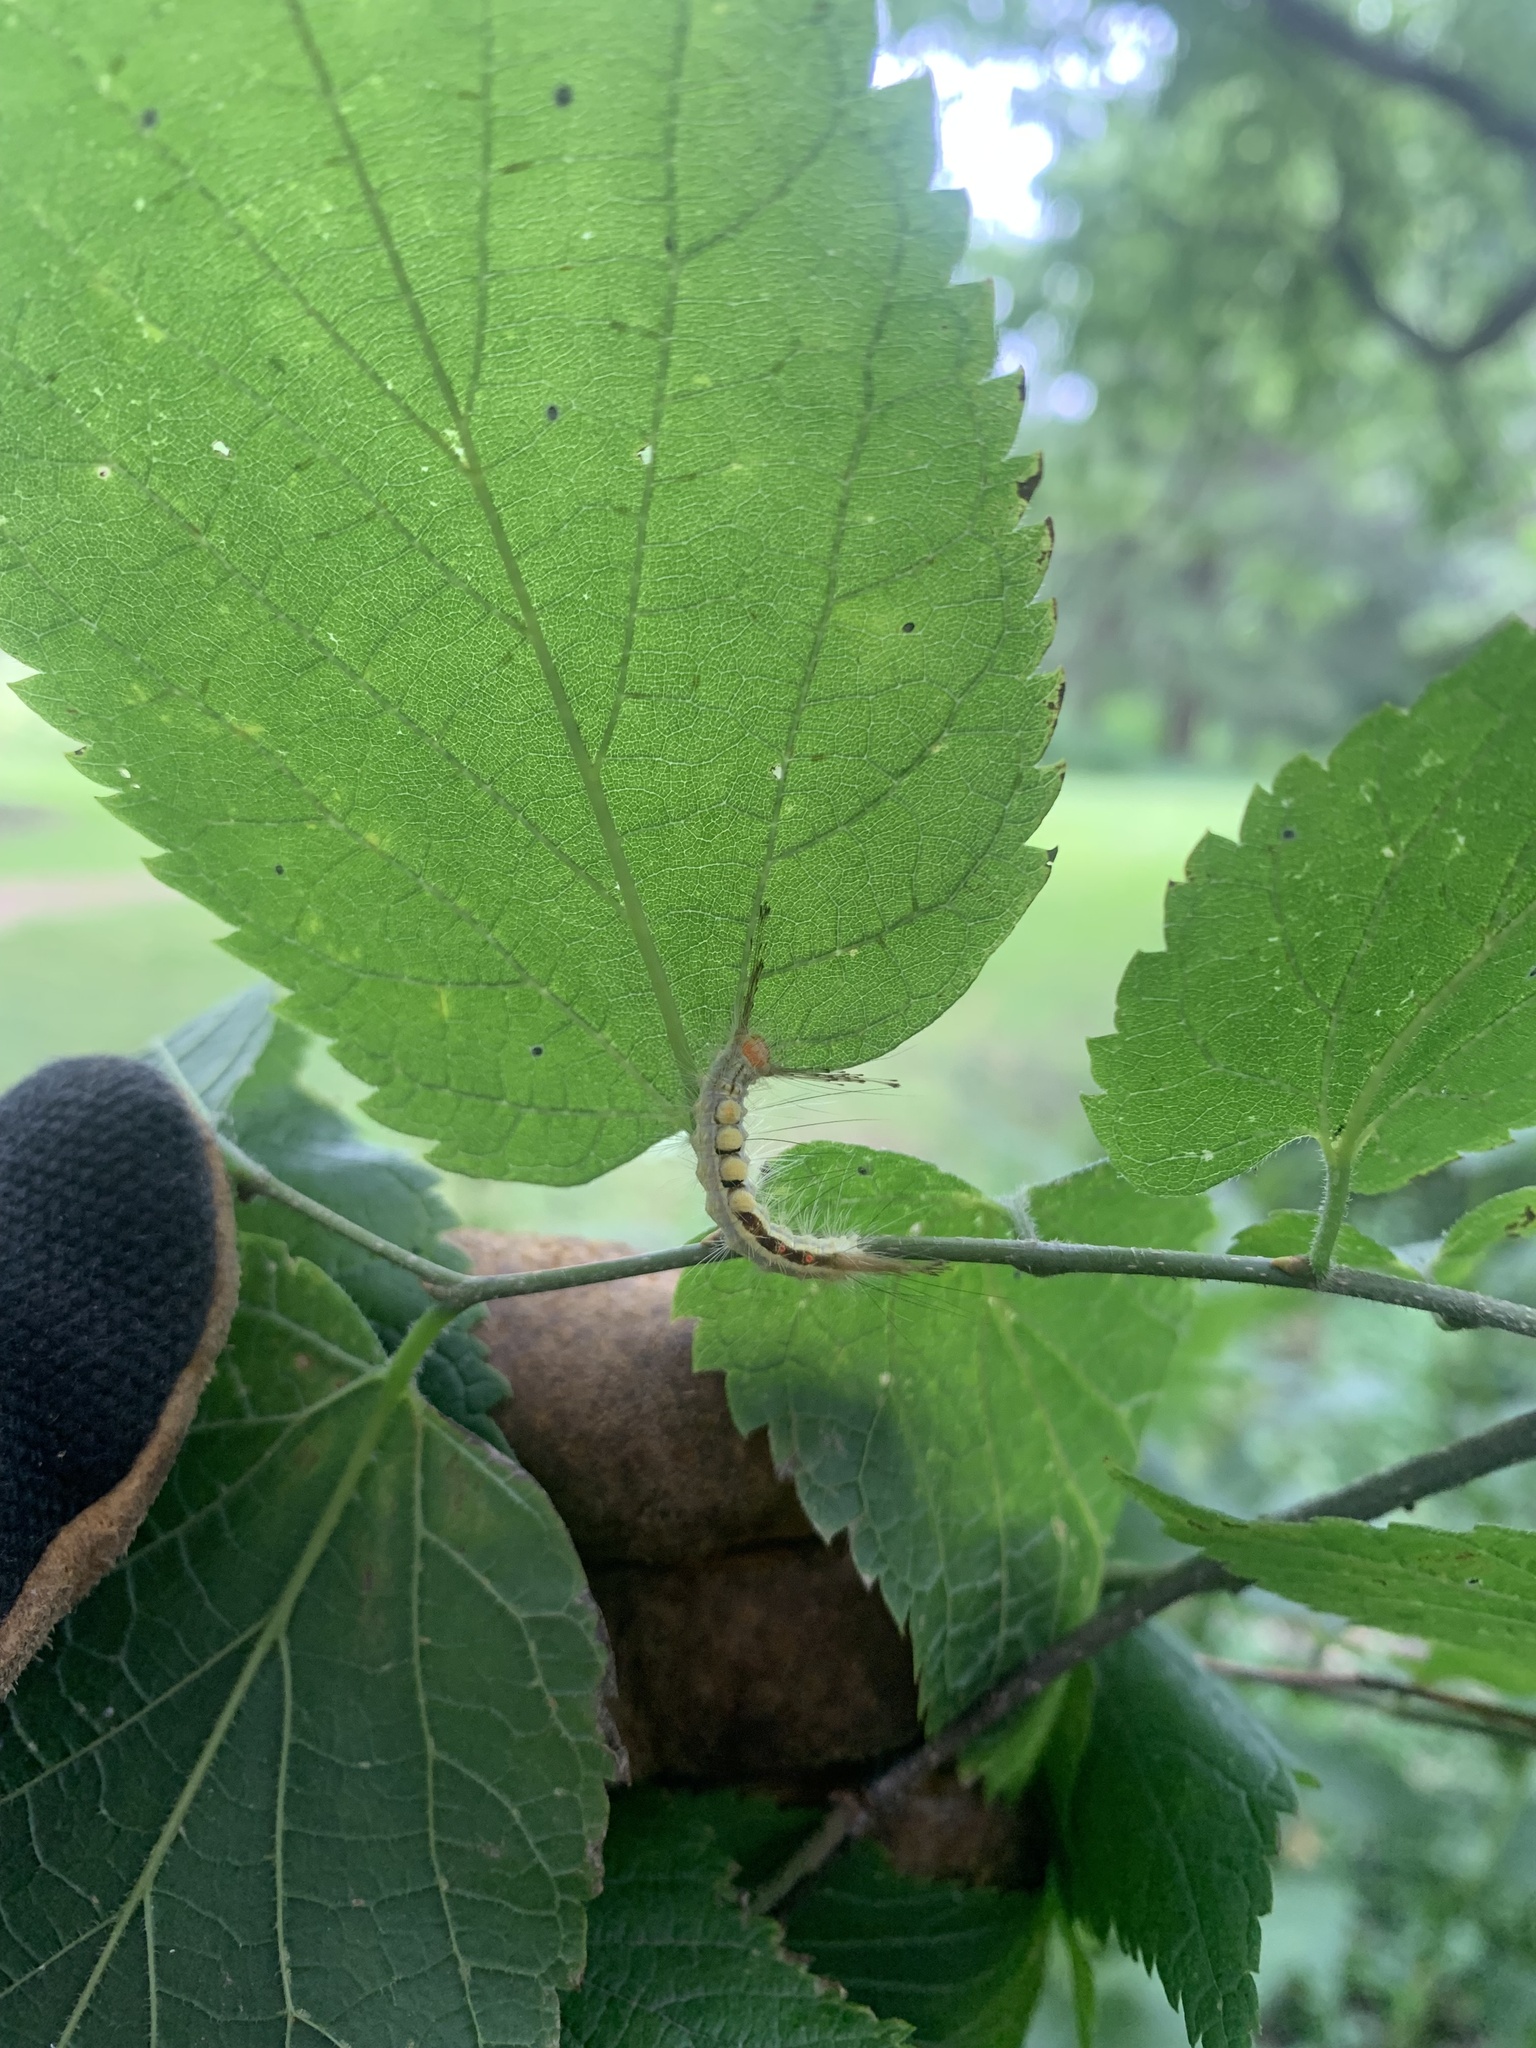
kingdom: Animalia
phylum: Arthropoda
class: Insecta
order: Lepidoptera
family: Erebidae
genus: Orgyia
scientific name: Orgyia leucostigma
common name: White-marked tussock moth
